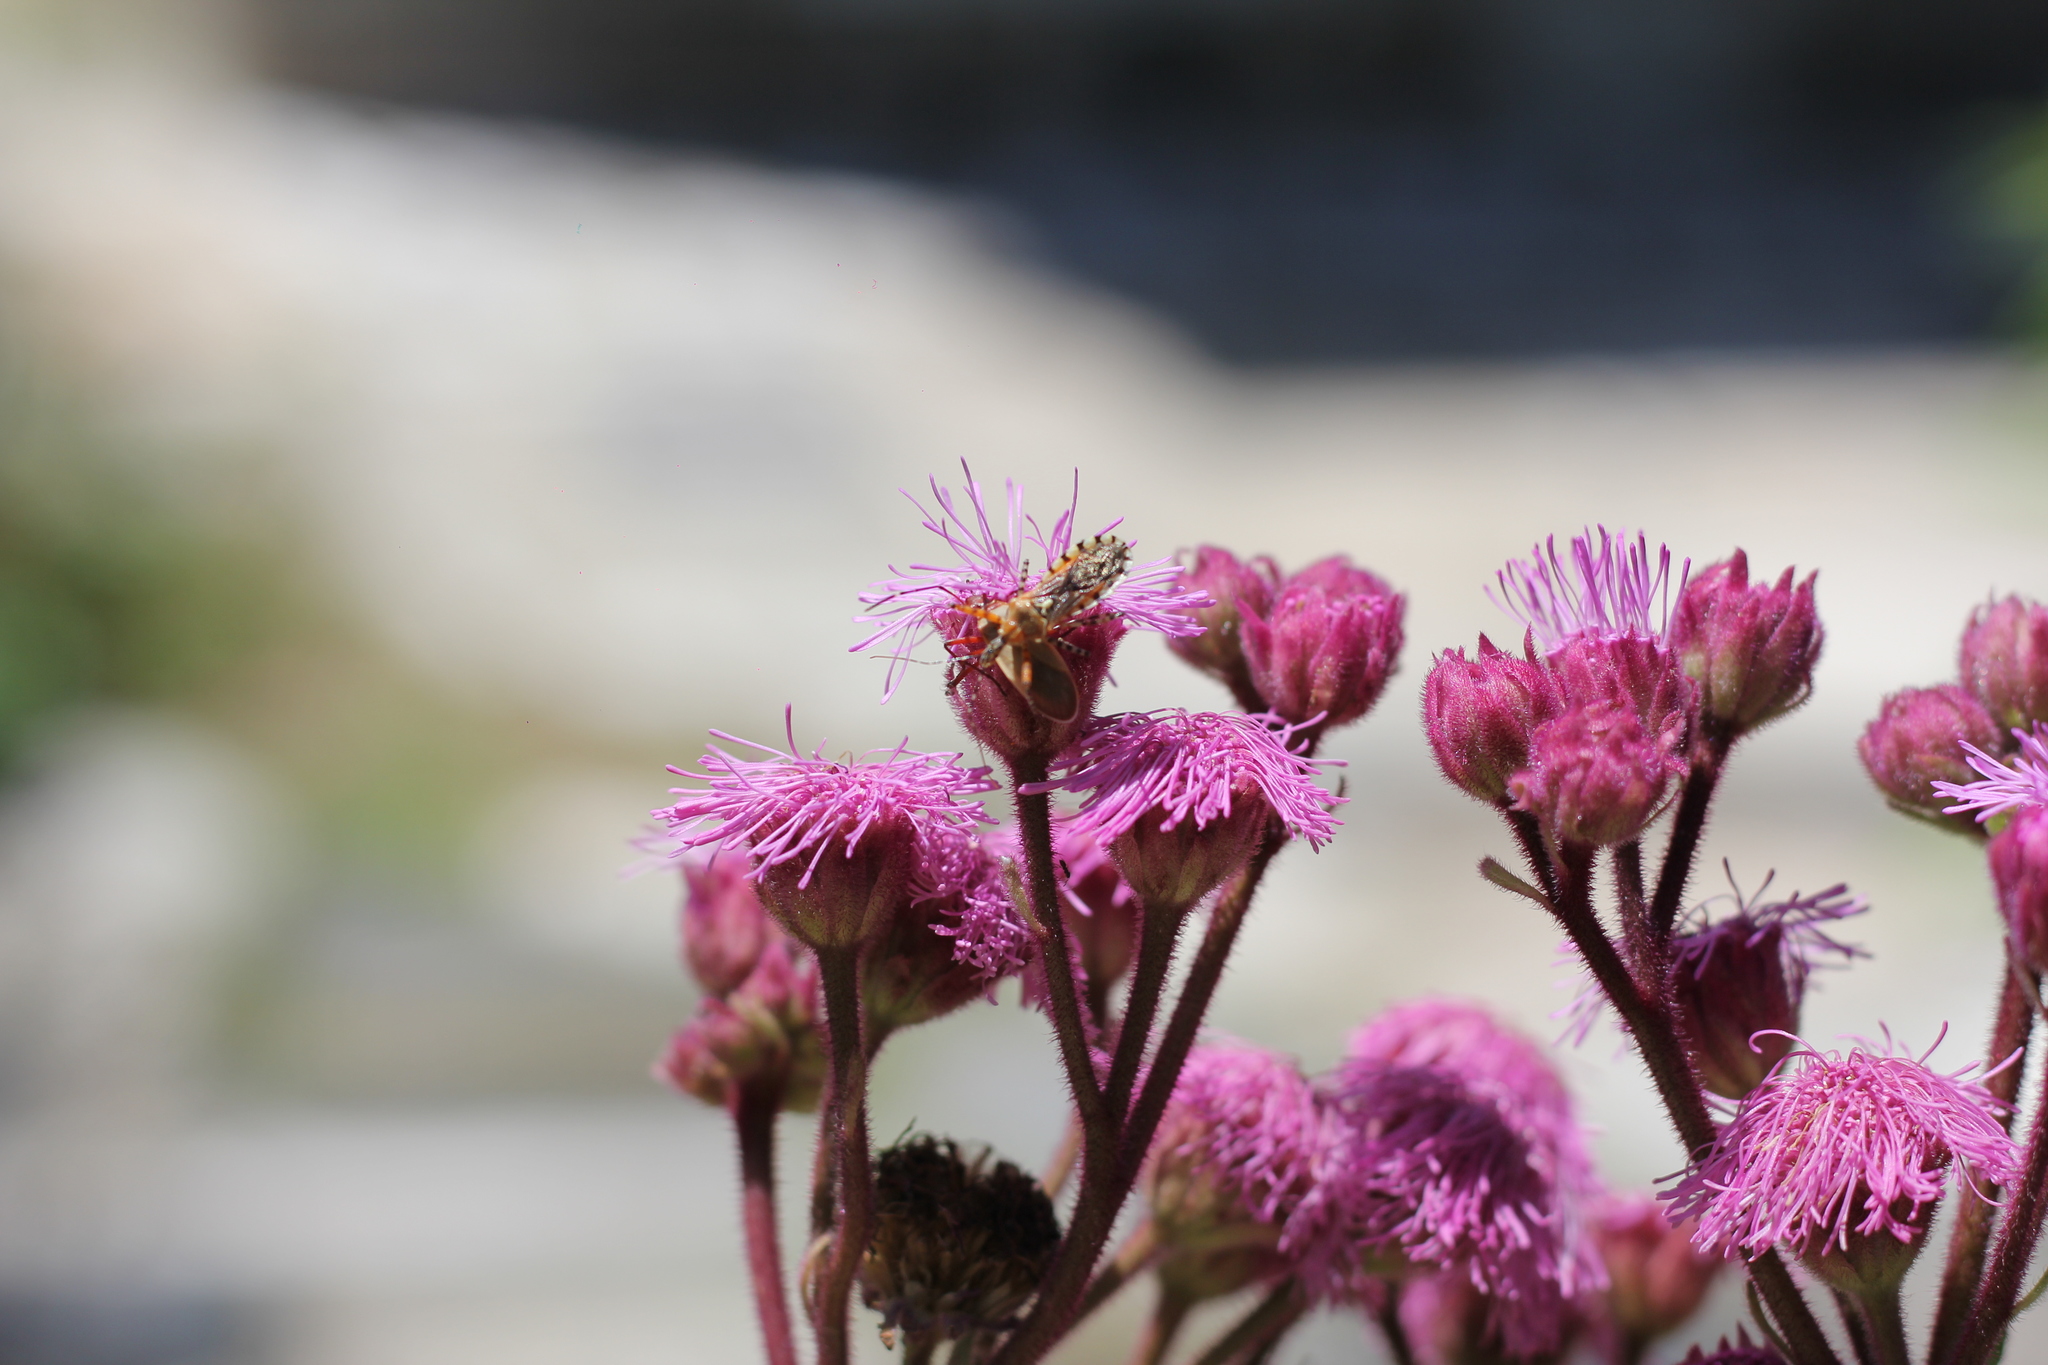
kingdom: Animalia
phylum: Arthropoda
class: Insecta
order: Hemiptera
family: Reduviidae
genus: Cosmoclopius
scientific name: Cosmoclopius nigroannulatus
